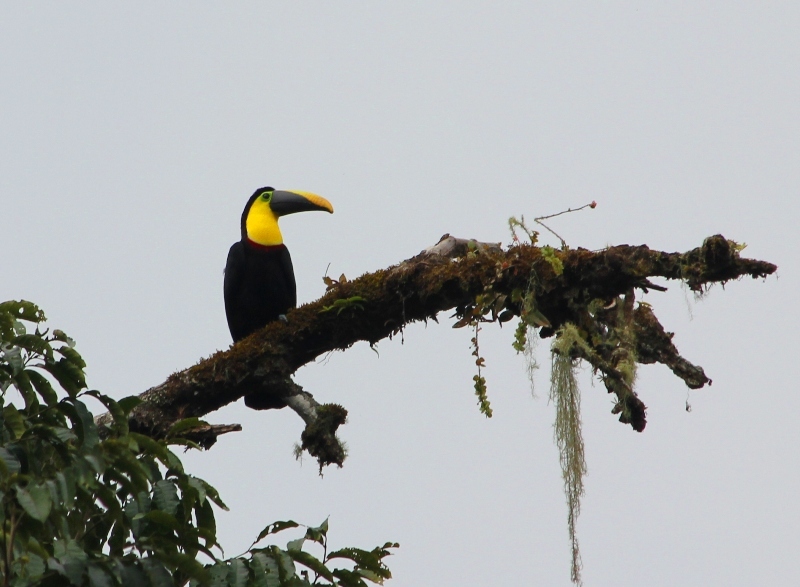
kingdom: Animalia
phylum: Chordata
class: Aves
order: Piciformes
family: Ramphastidae
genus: Ramphastos
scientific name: Ramphastos ambiguus
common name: Yellow-throated toucan
